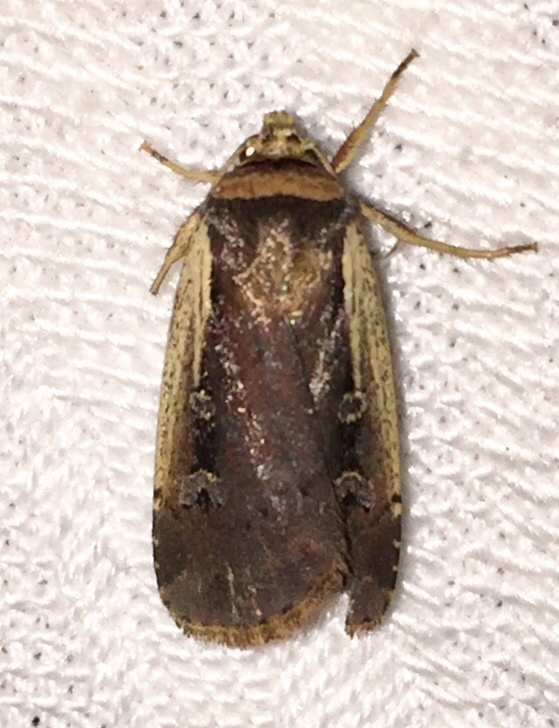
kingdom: Animalia
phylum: Arthropoda
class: Insecta
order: Lepidoptera
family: Noctuidae
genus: Ochropleura
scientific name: Ochropleura implecta
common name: Flame-shouldered dart
